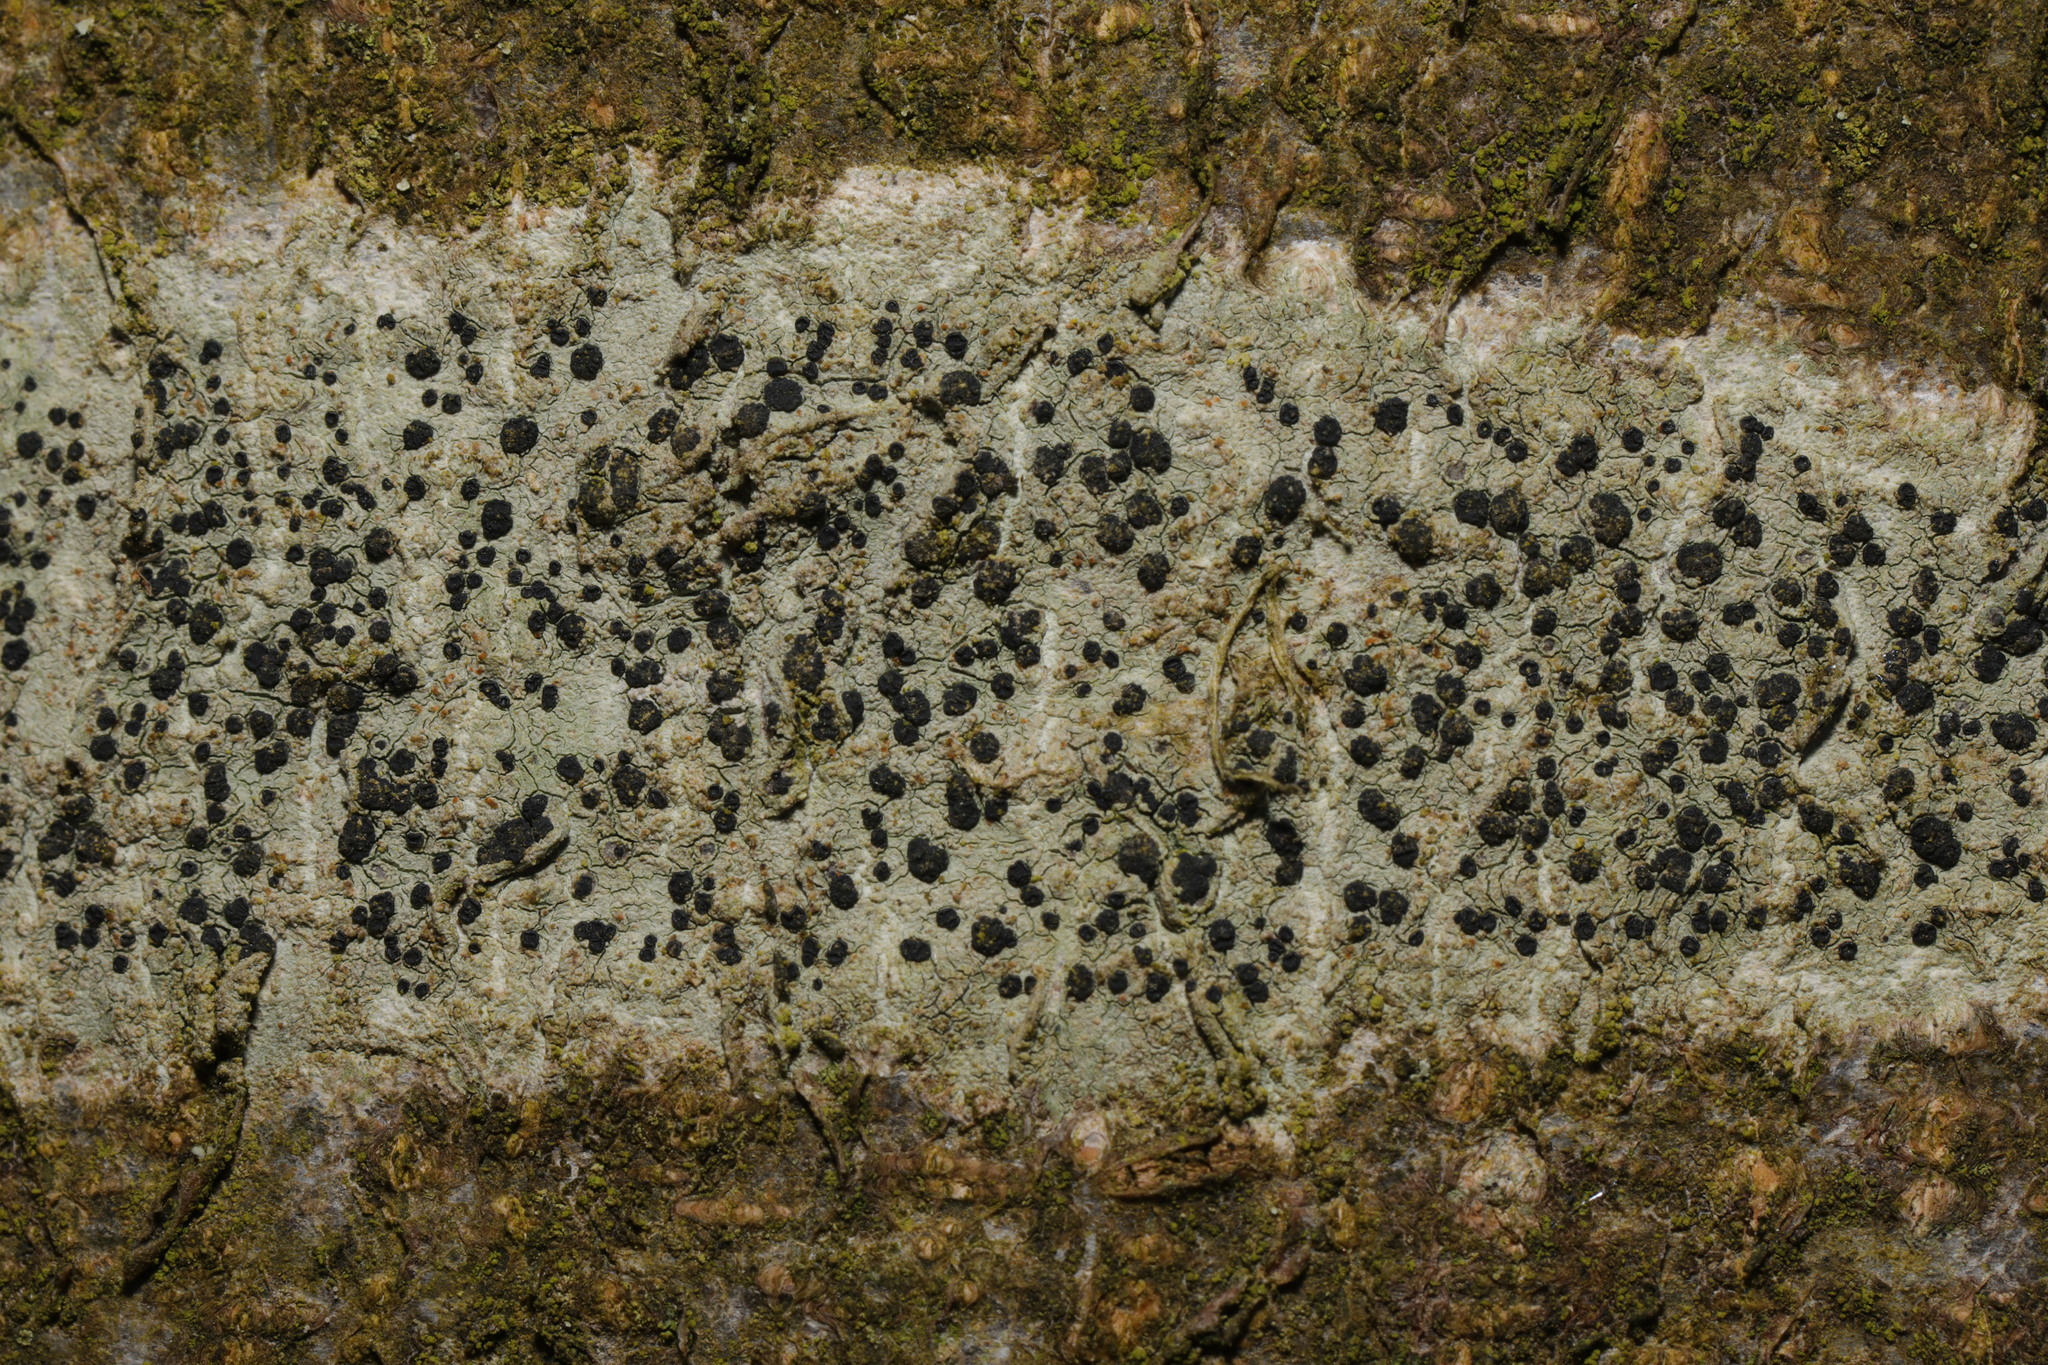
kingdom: Fungi
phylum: Ascomycota
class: Lecanoromycetes
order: Lecanorales
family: Lecanoraceae
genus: Lecidella
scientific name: Lecidella elaeochroma
